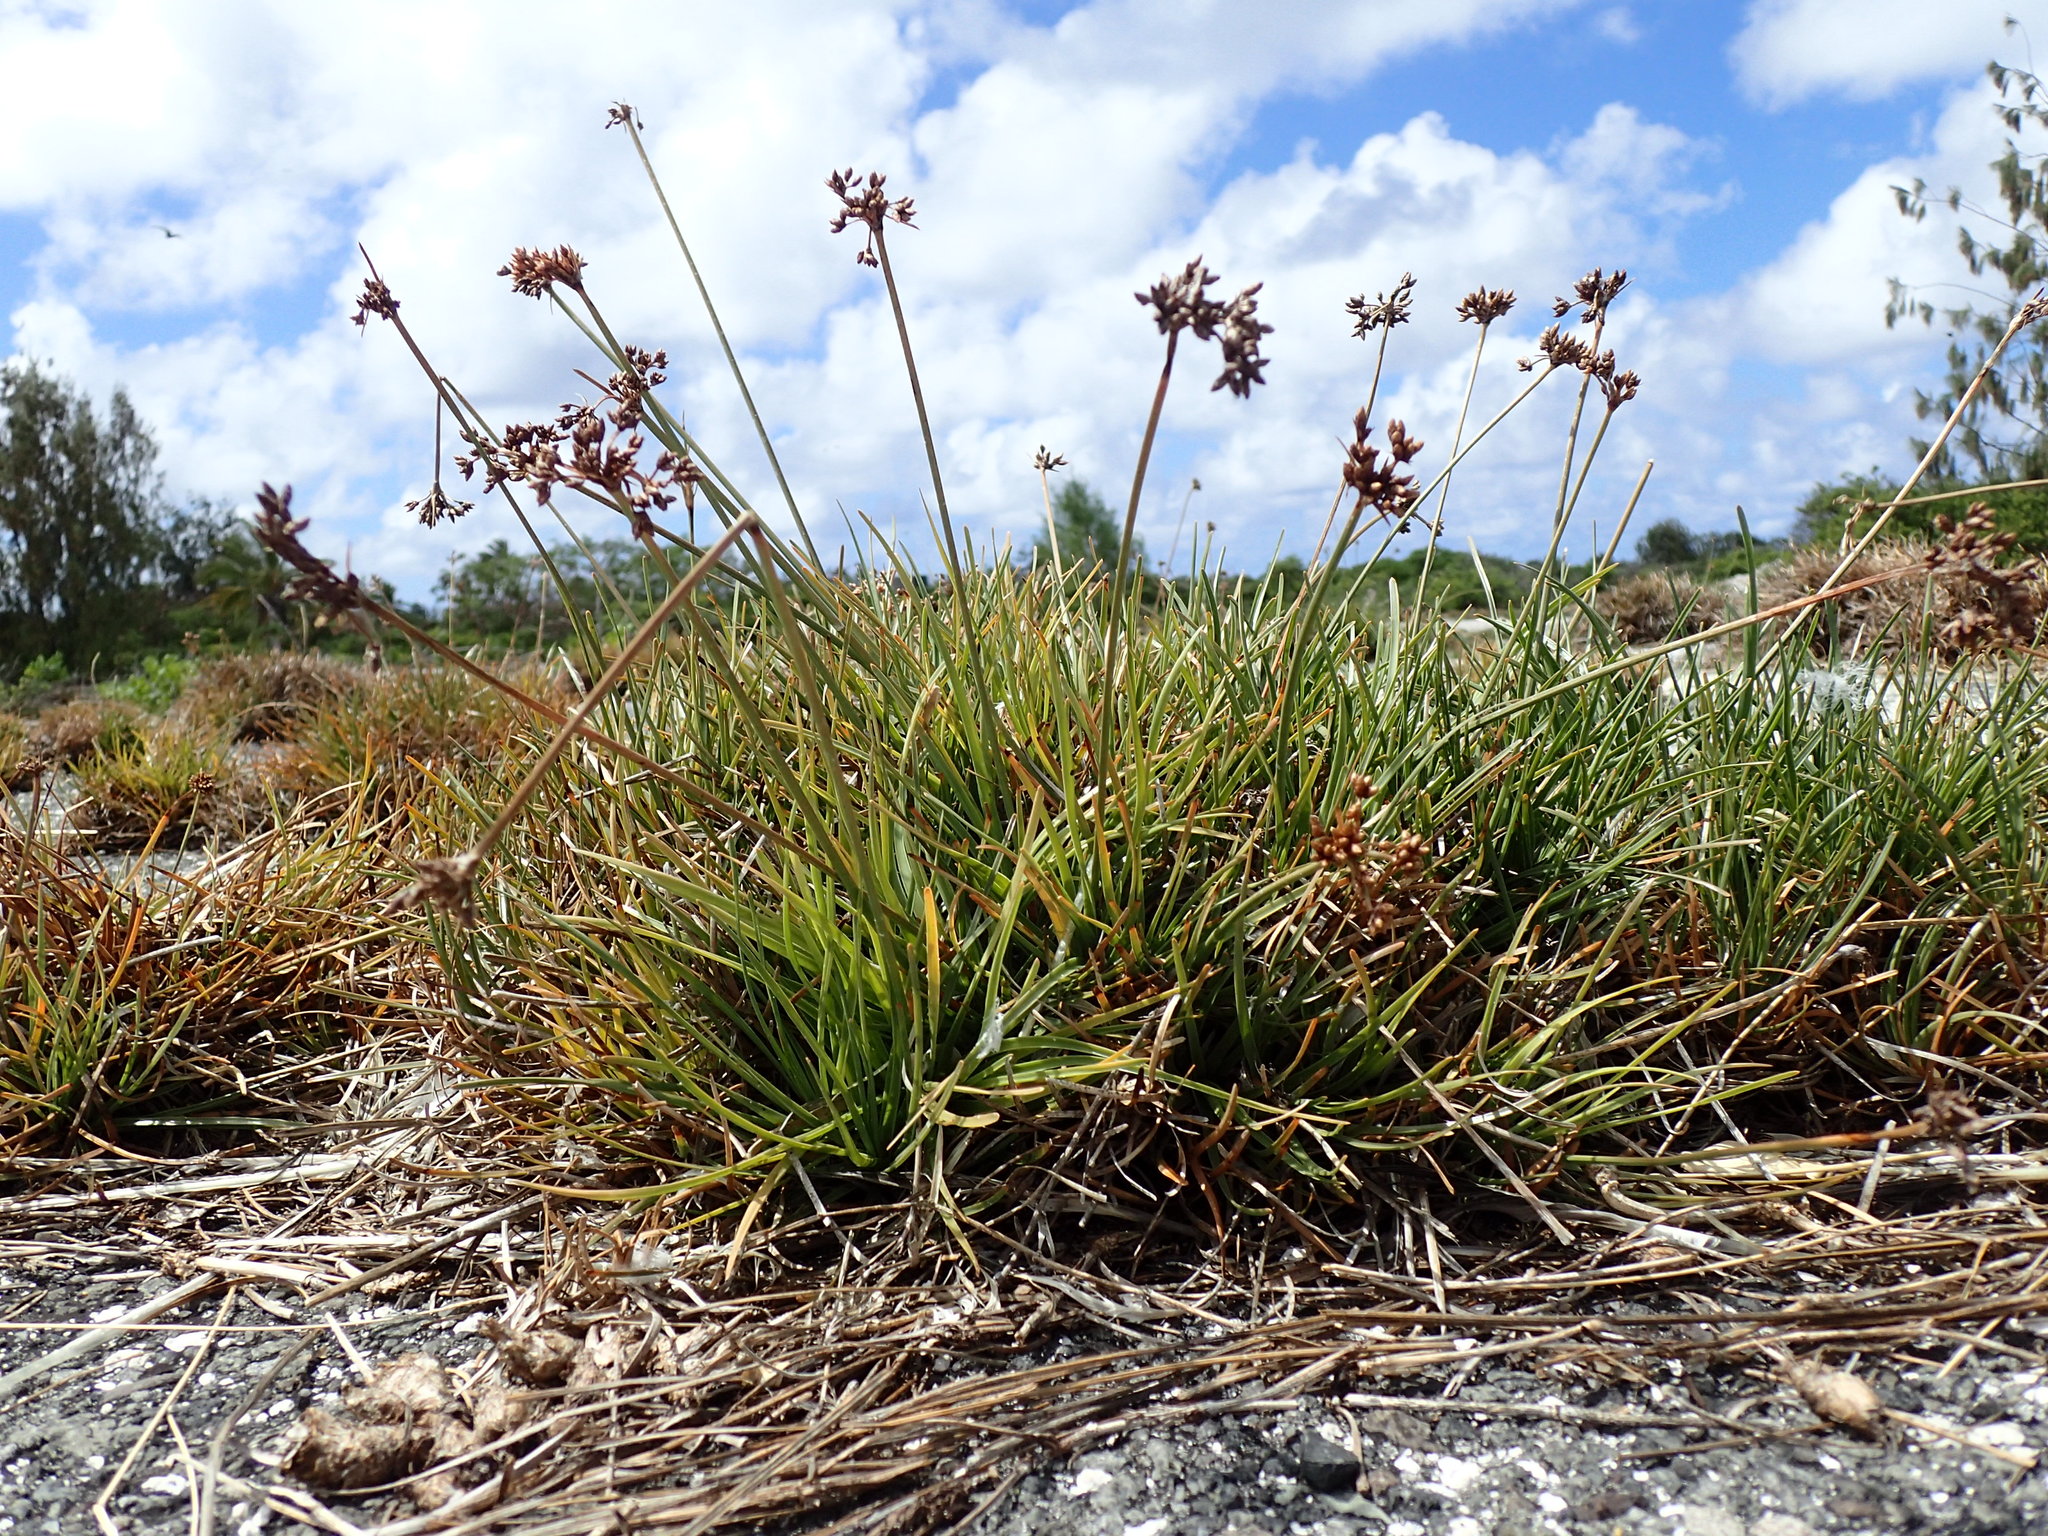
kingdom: Plantae
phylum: Tracheophyta
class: Liliopsida
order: Poales
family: Cyperaceae
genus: Fimbristylis
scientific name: Fimbristylis cymosa
